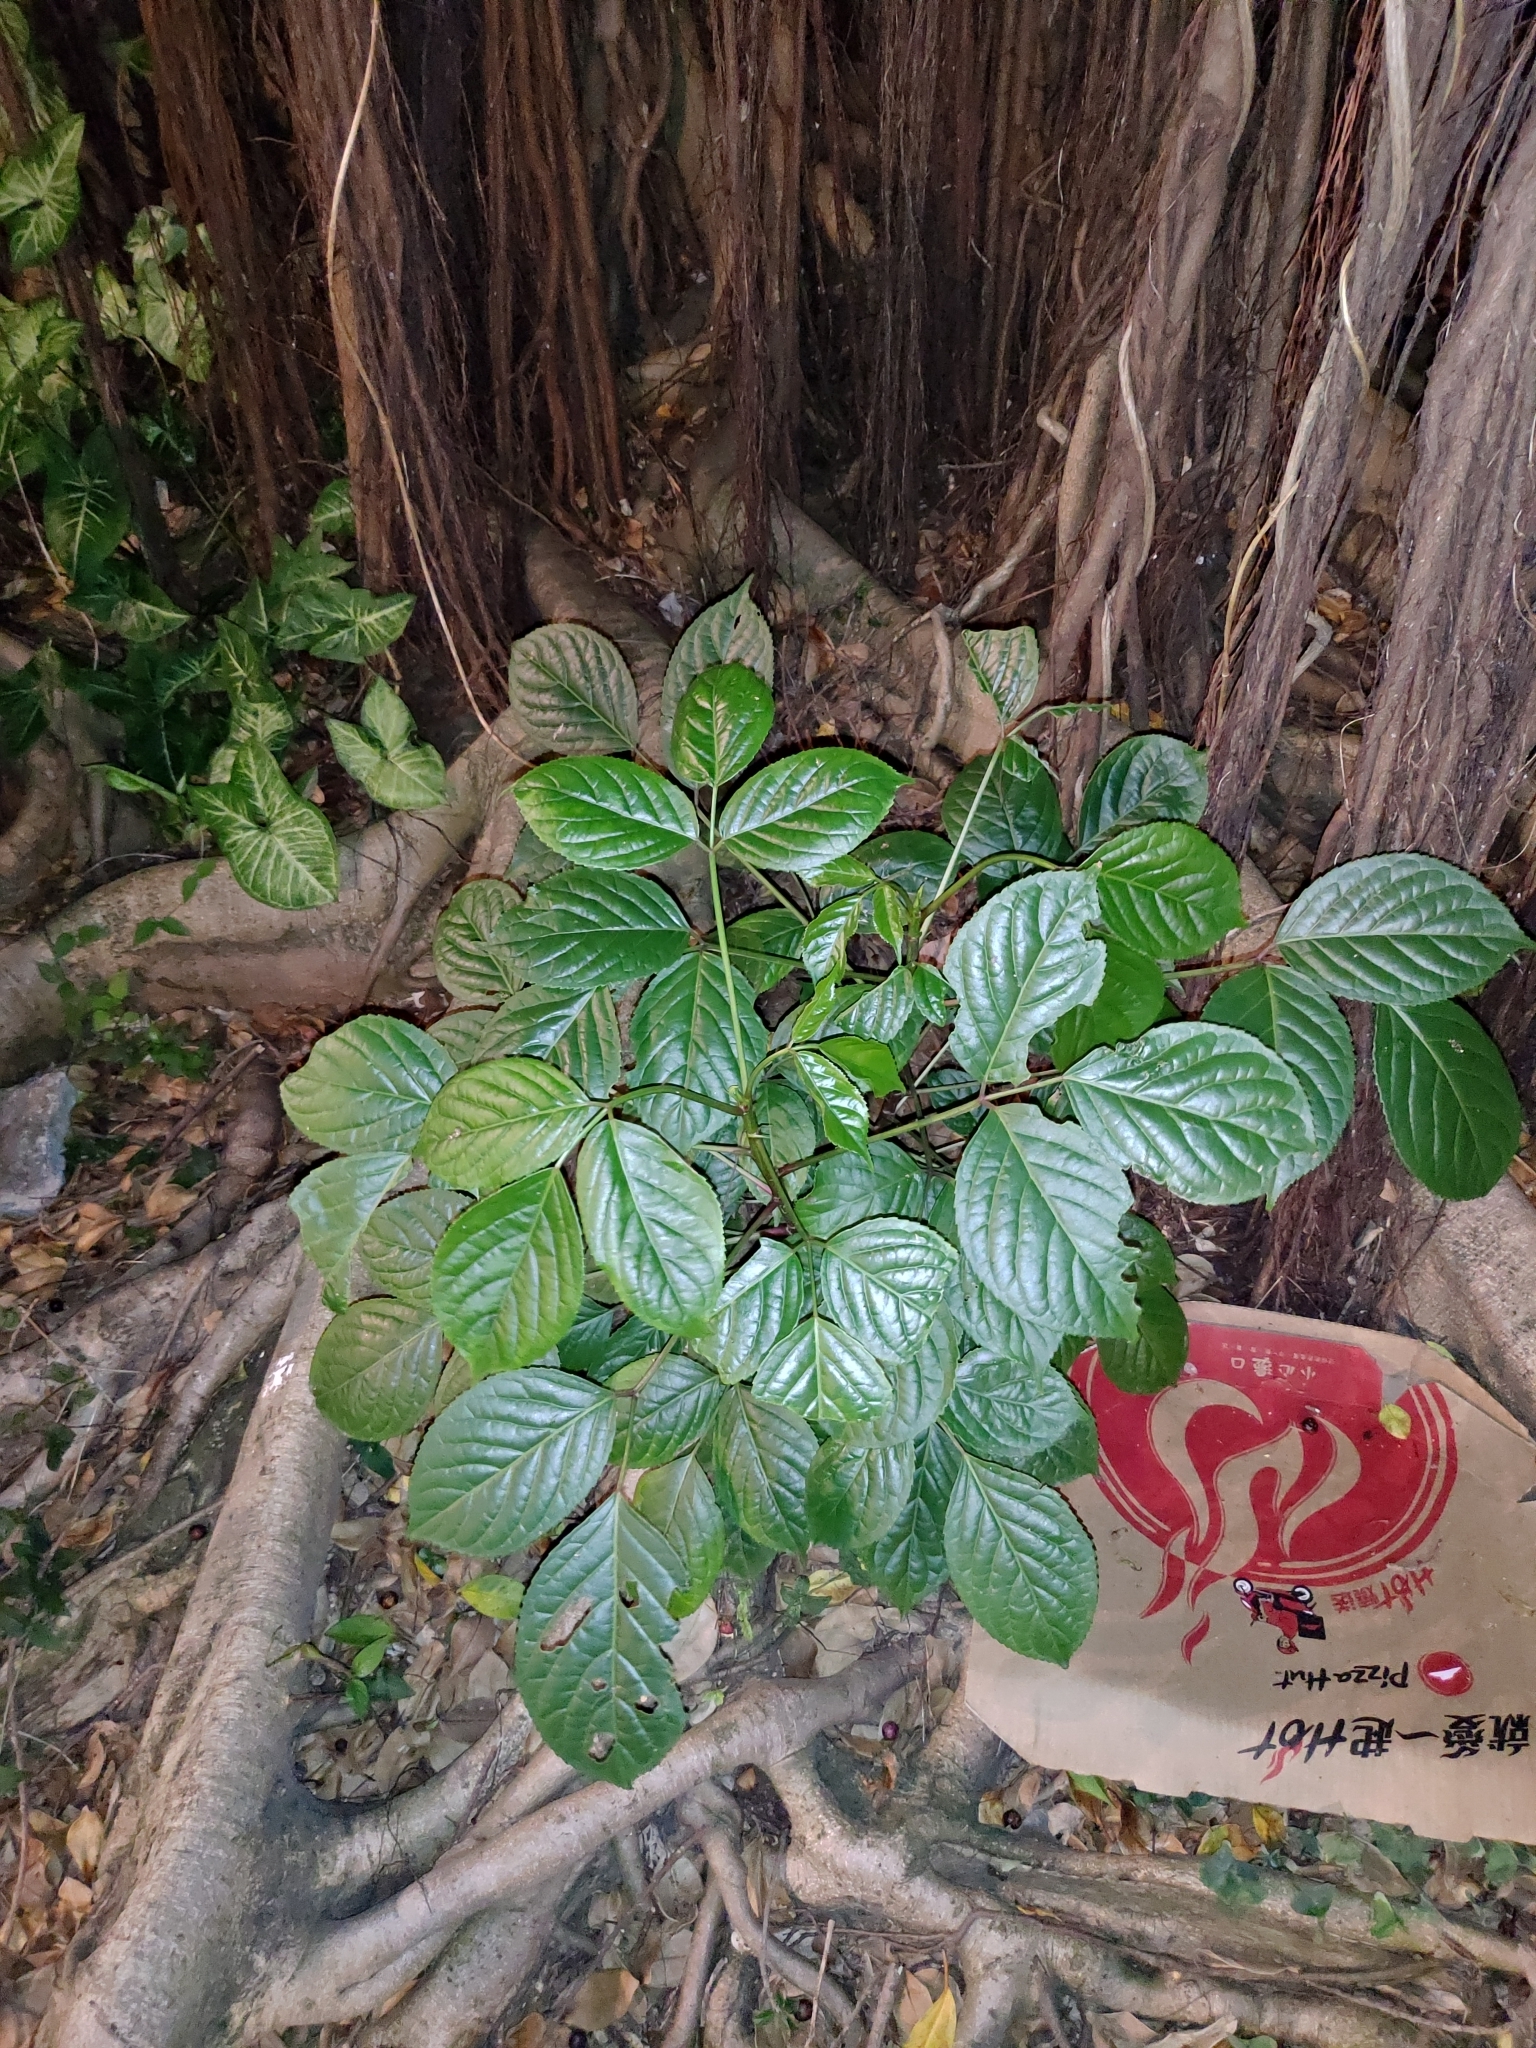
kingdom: Plantae
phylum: Tracheophyta
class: Magnoliopsida
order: Malpighiales
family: Phyllanthaceae
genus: Bischofia
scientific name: Bischofia javanica
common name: Javanese bishopwood
